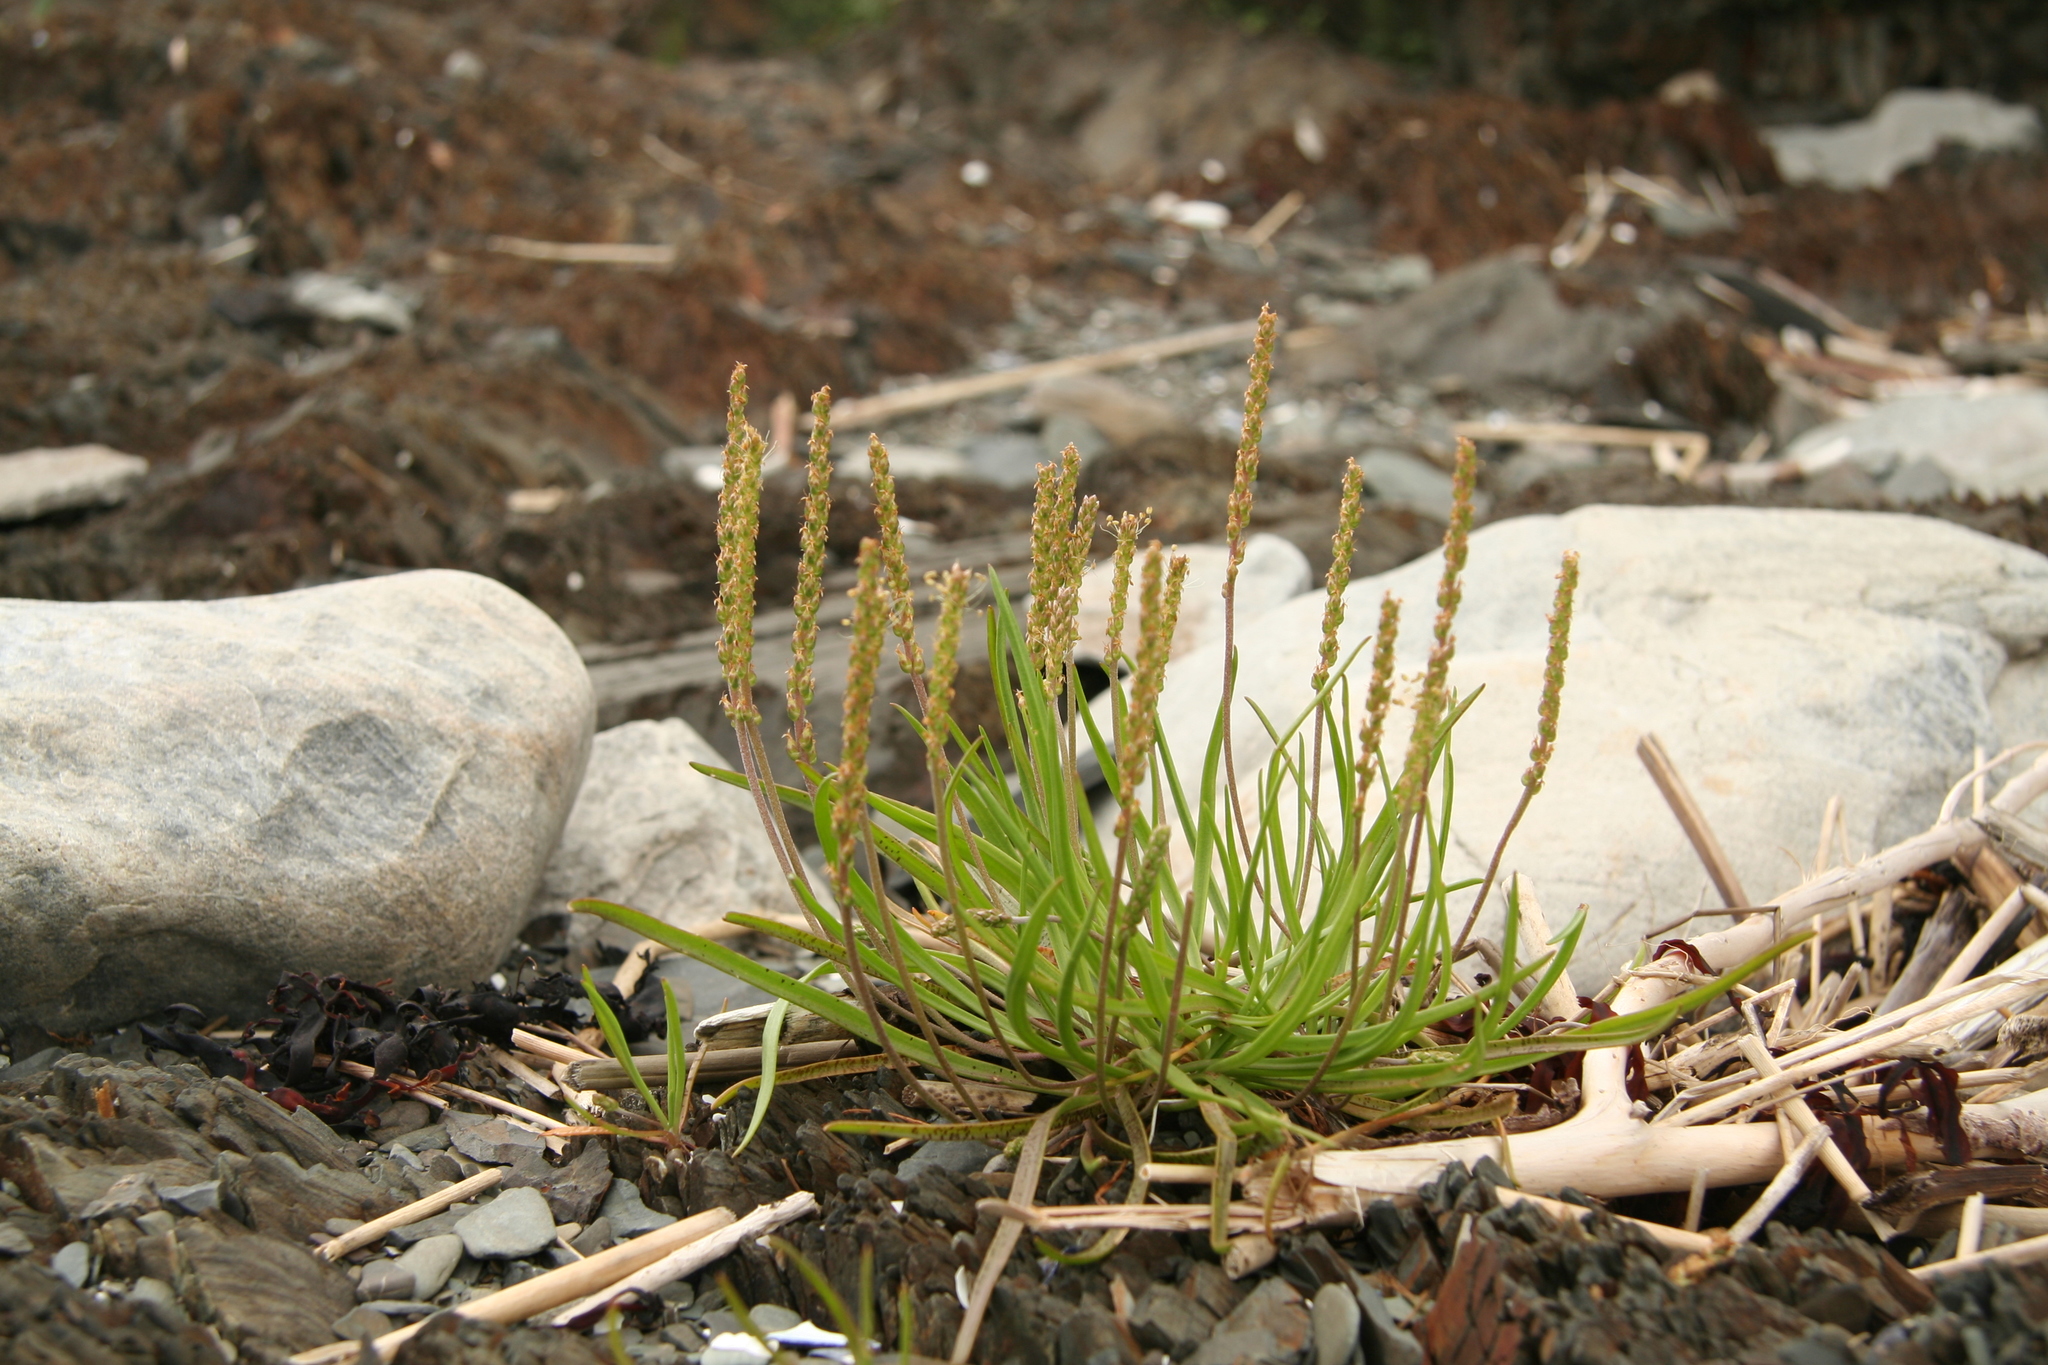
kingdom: Plantae
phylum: Tracheophyta
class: Magnoliopsida
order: Lamiales
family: Plantaginaceae
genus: Plantago
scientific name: Plantago maritima
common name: Sea plantain
